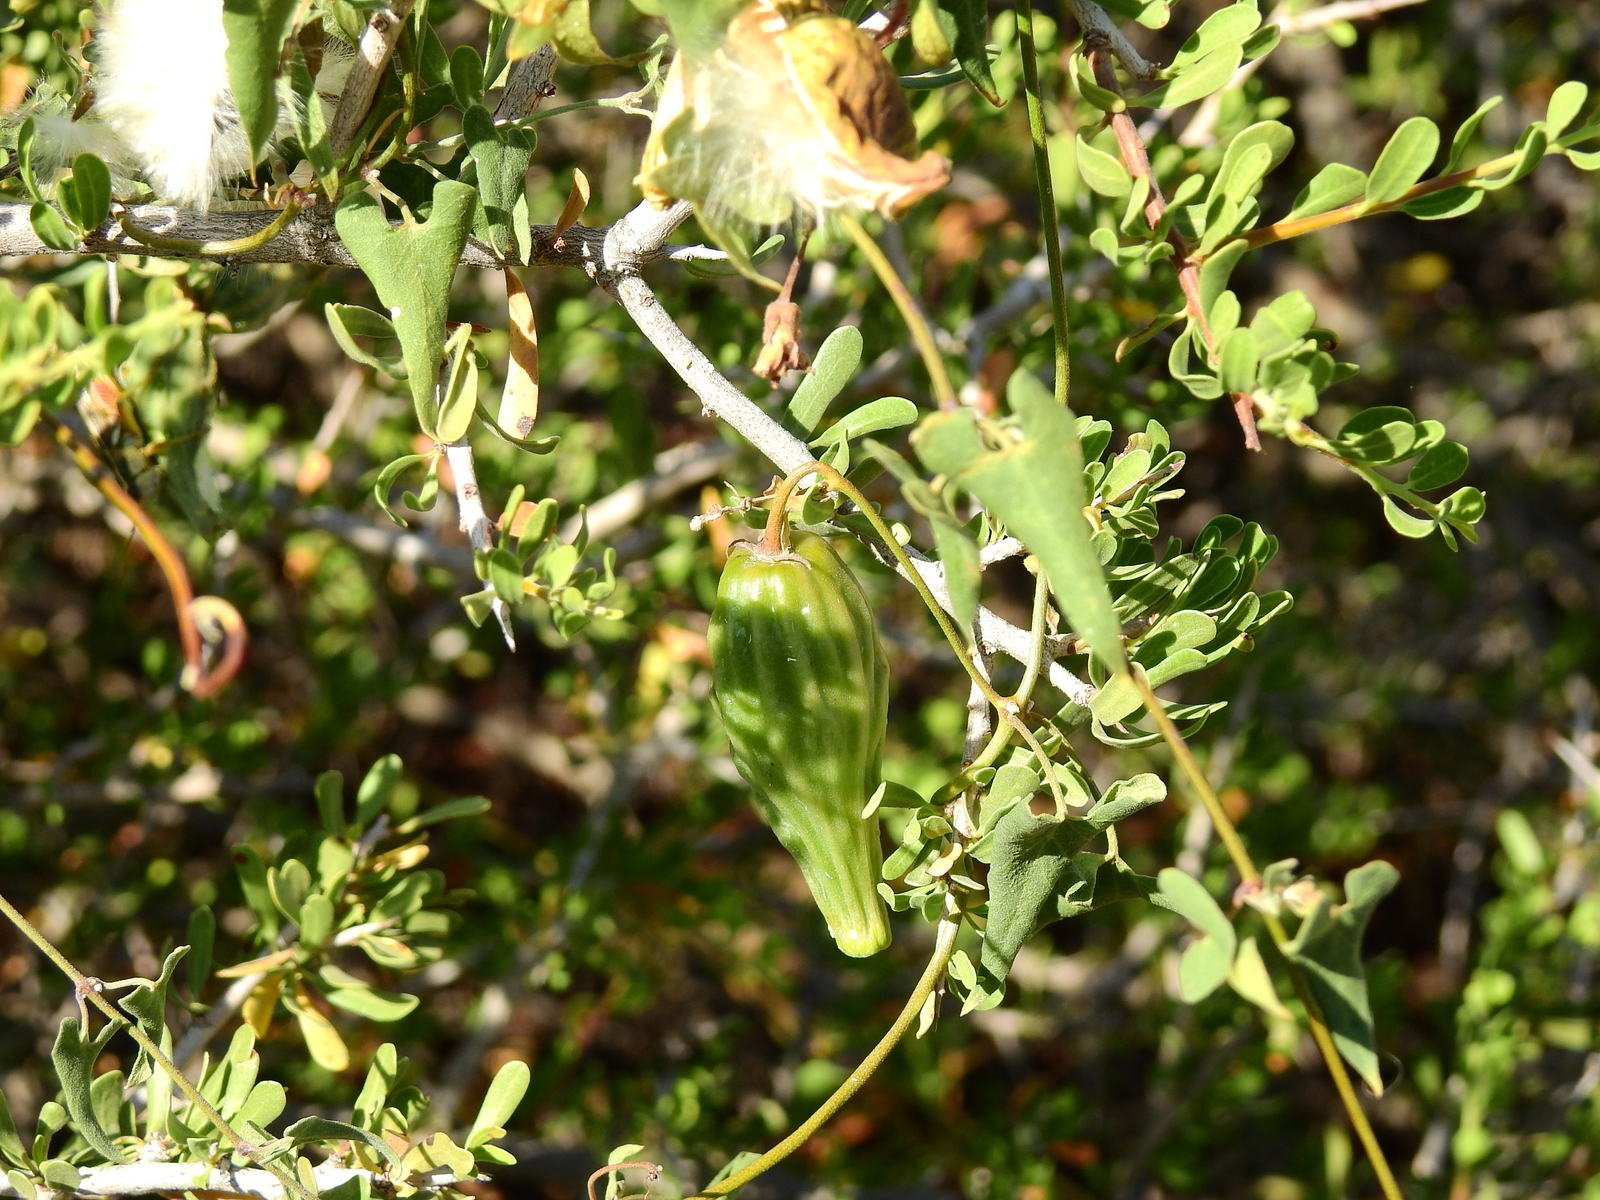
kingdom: Plantae
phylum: Tracheophyta
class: Magnoliopsida
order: Gentianales
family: Apocynaceae
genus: Philibertia
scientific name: Philibertia gilliesii
